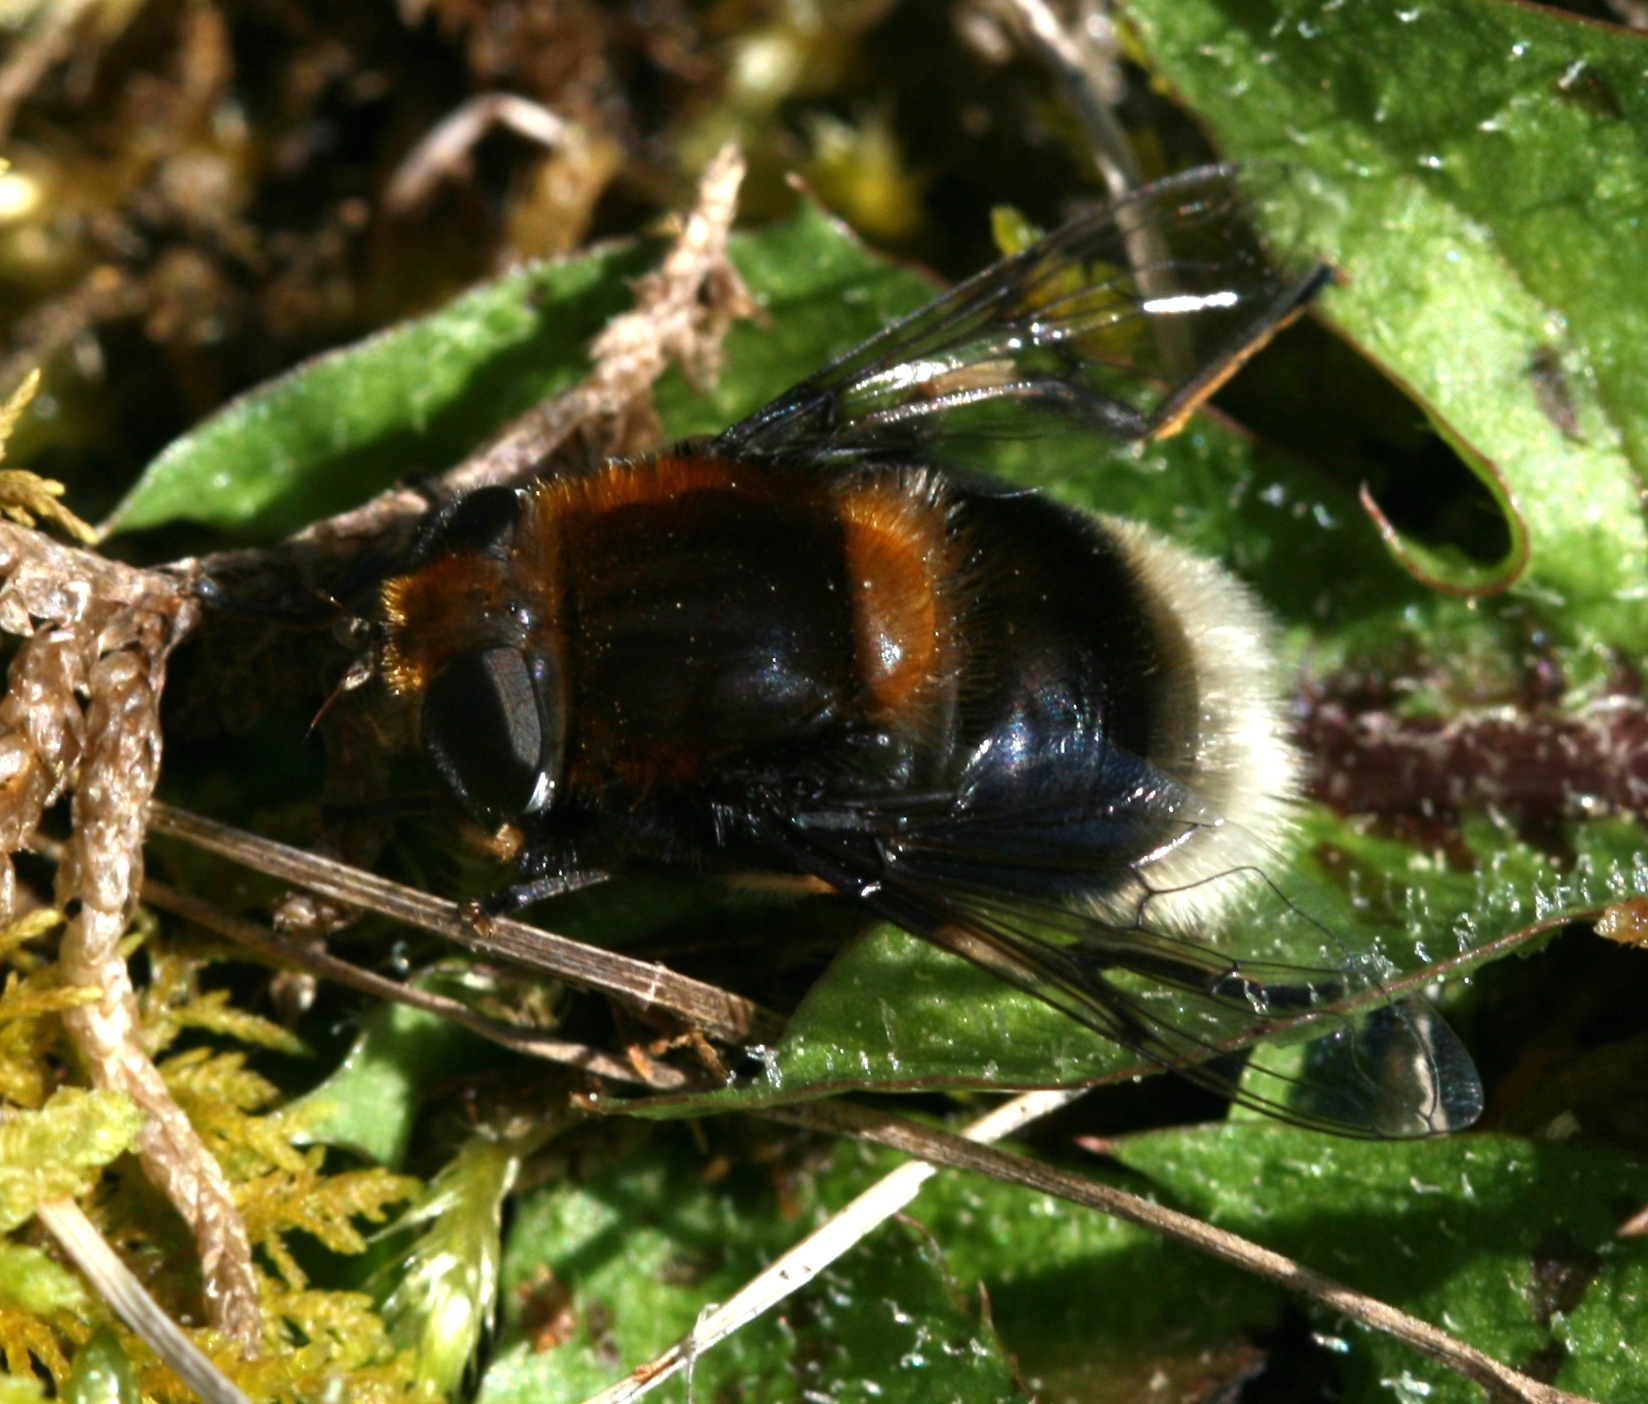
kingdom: Animalia
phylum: Arthropoda
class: Insecta
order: Diptera
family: Syrphidae
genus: Eristalis
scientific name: Eristalis intricaria
